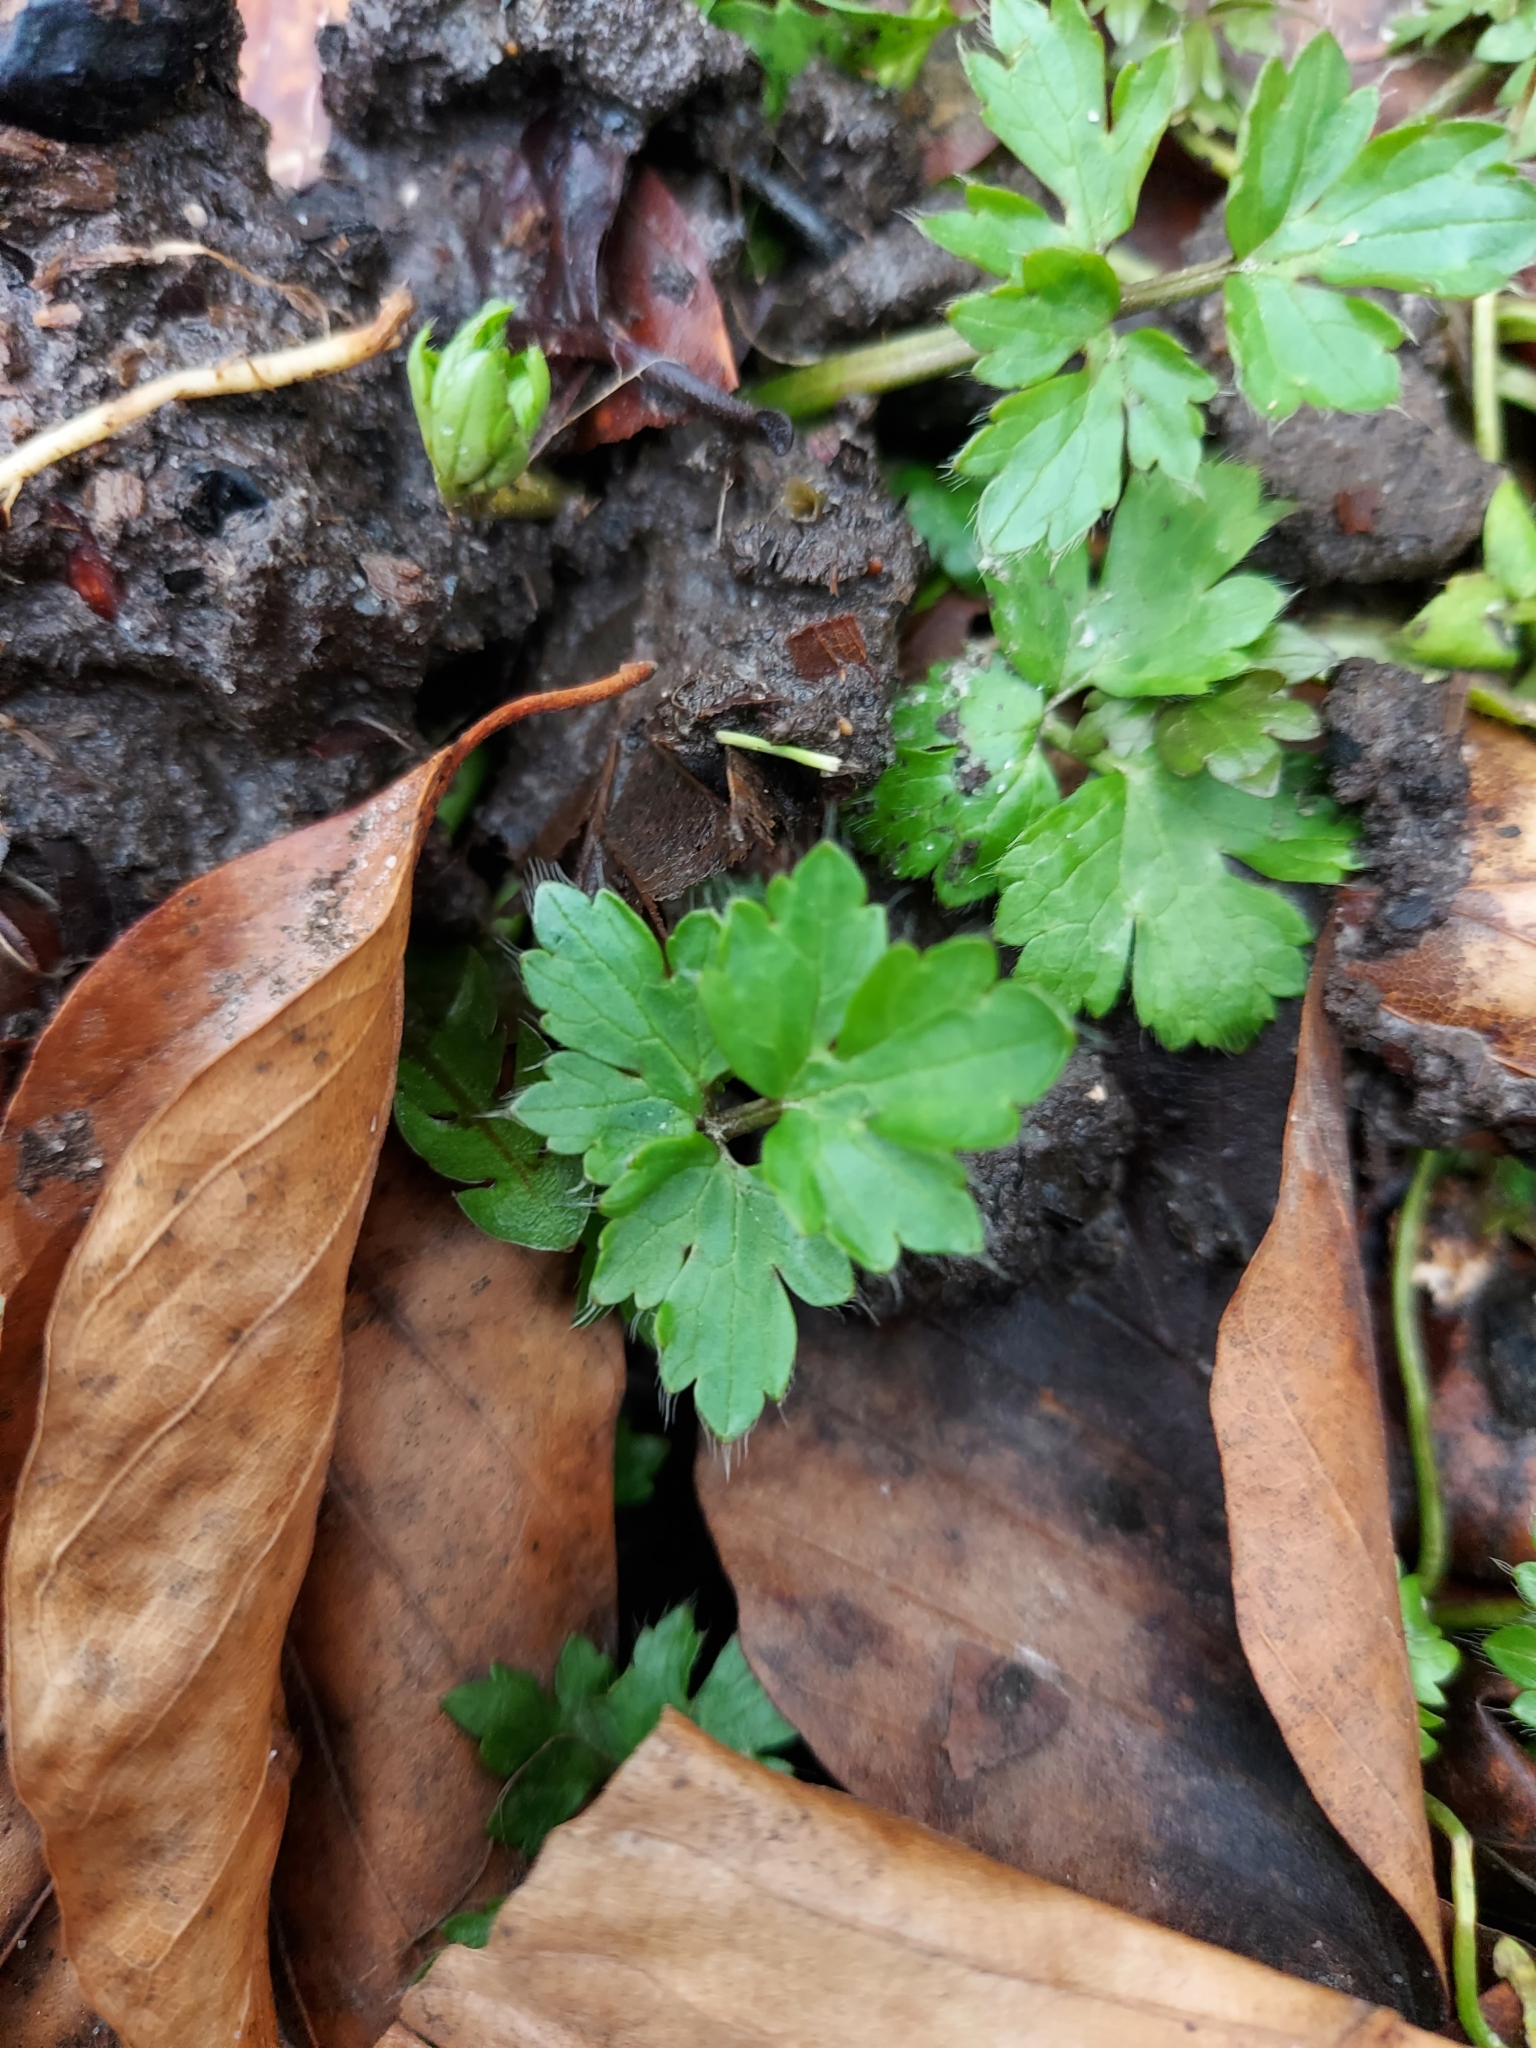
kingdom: Plantae
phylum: Tracheophyta
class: Magnoliopsida
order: Ranunculales
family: Ranunculaceae
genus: Ranunculus
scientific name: Ranunculus repens
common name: Creeping buttercup
